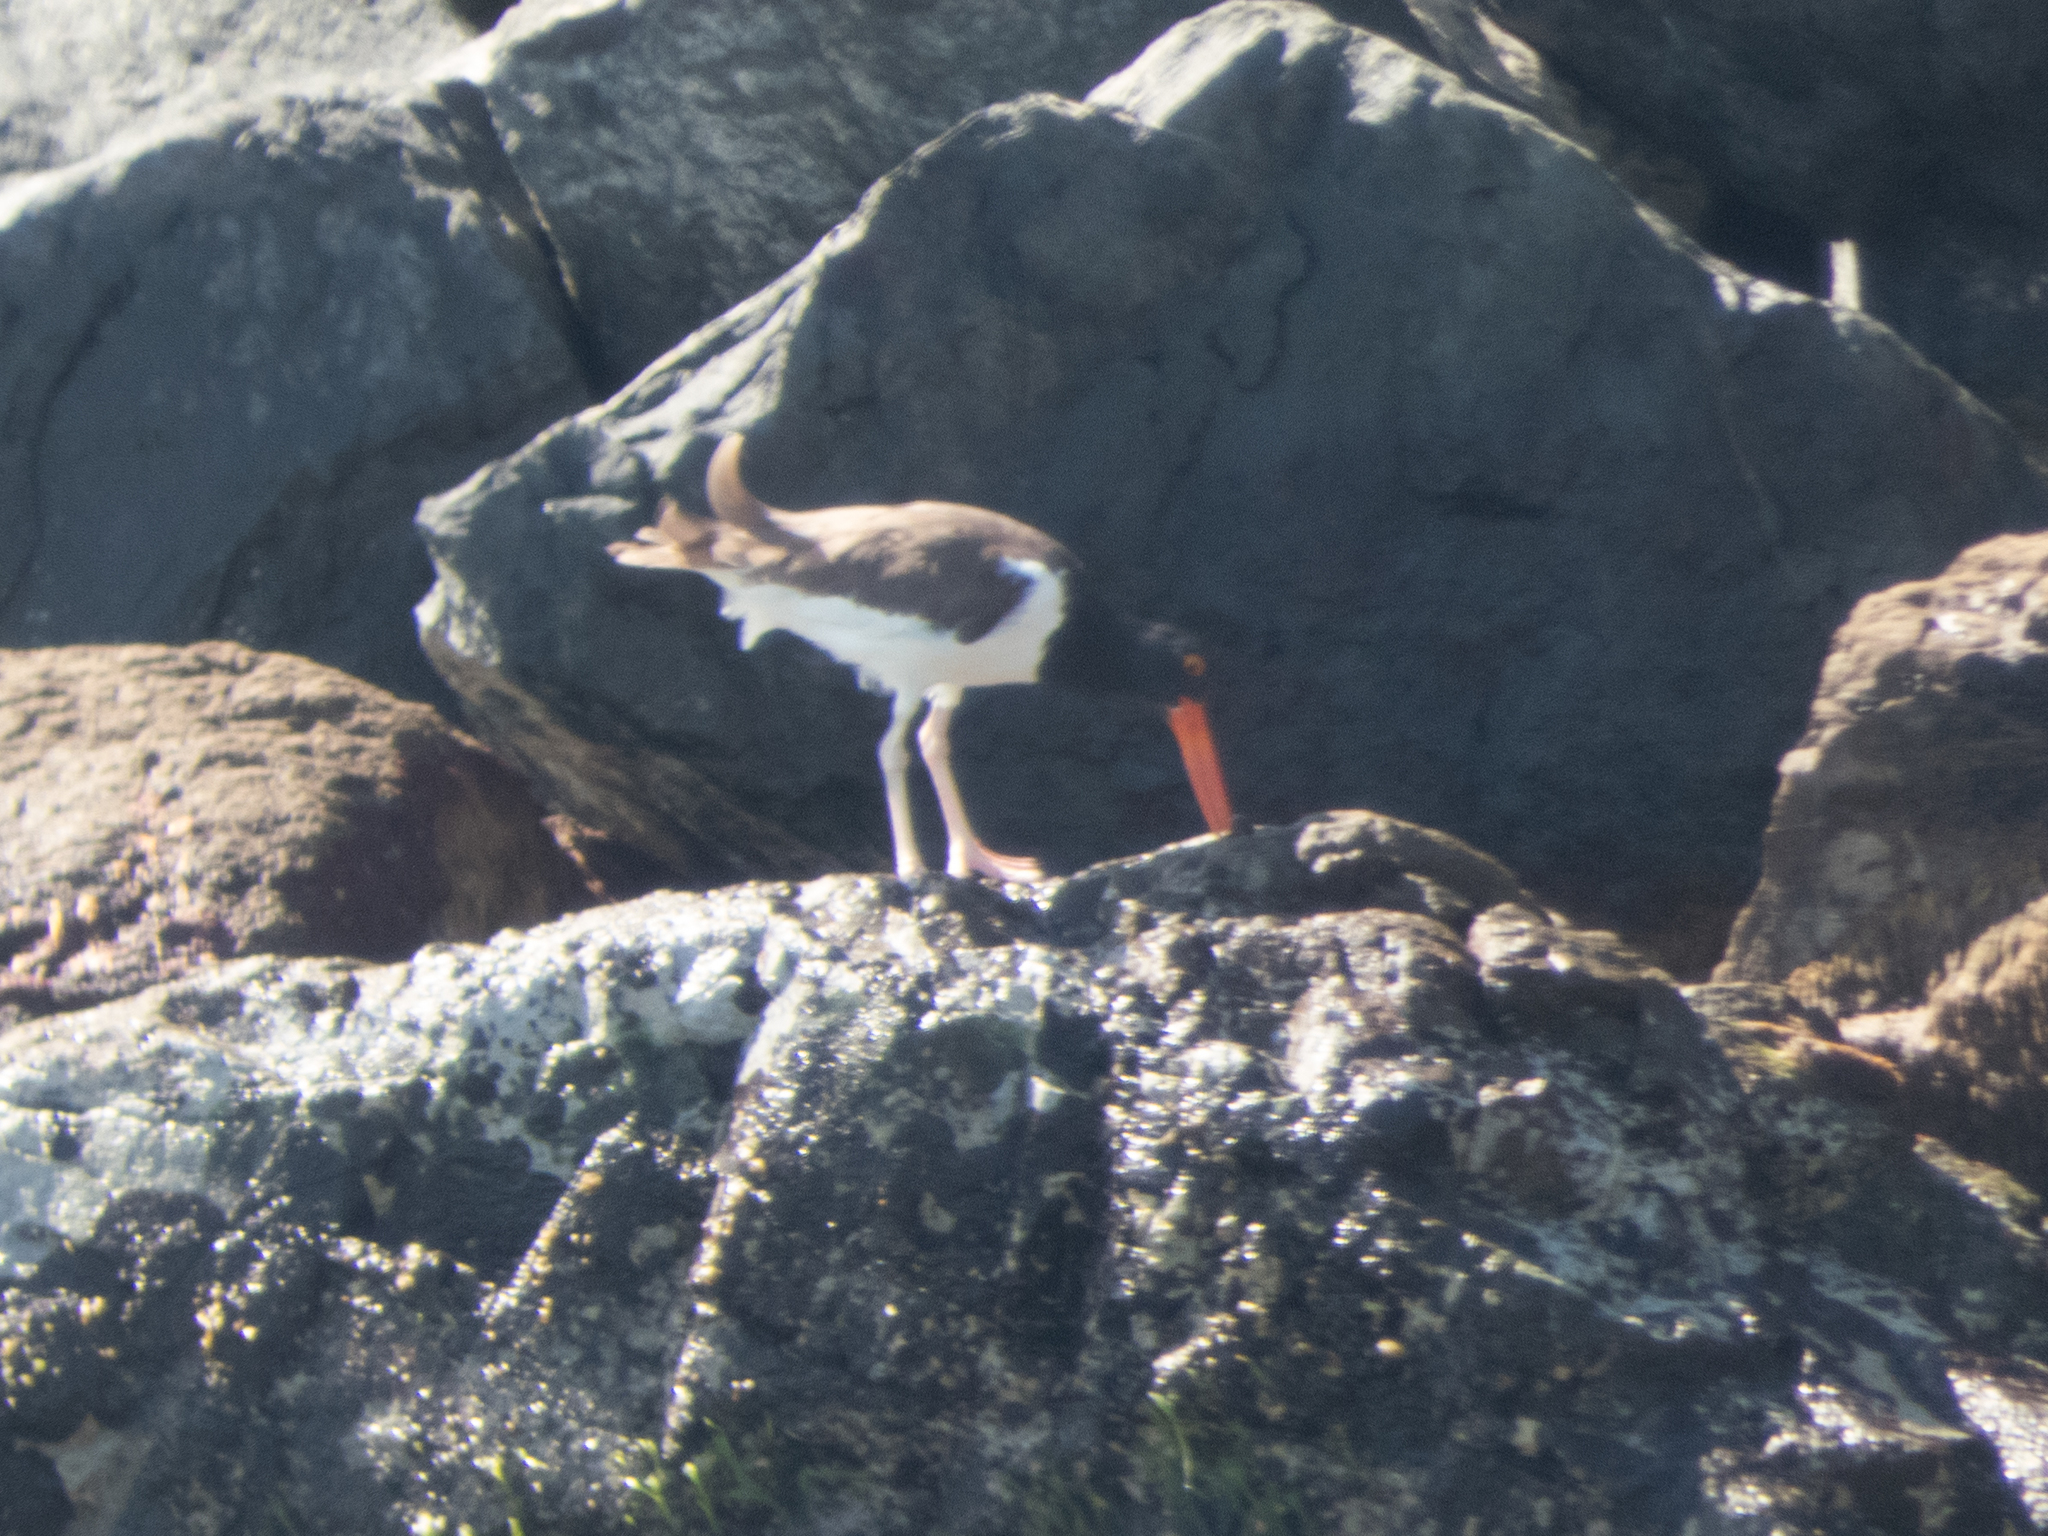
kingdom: Animalia
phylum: Chordata
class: Aves
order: Charadriiformes
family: Haematopodidae
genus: Haematopus
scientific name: Haematopus palliatus
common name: American oystercatcher
